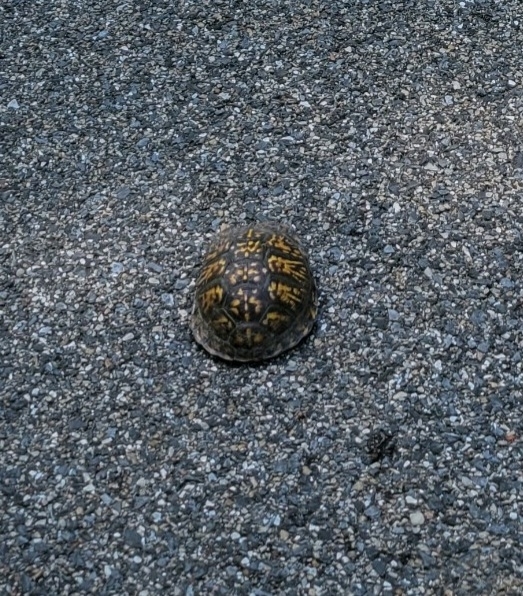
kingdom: Animalia
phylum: Chordata
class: Testudines
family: Emydidae
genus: Terrapene
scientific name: Terrapene carolina
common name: Common box turtle
